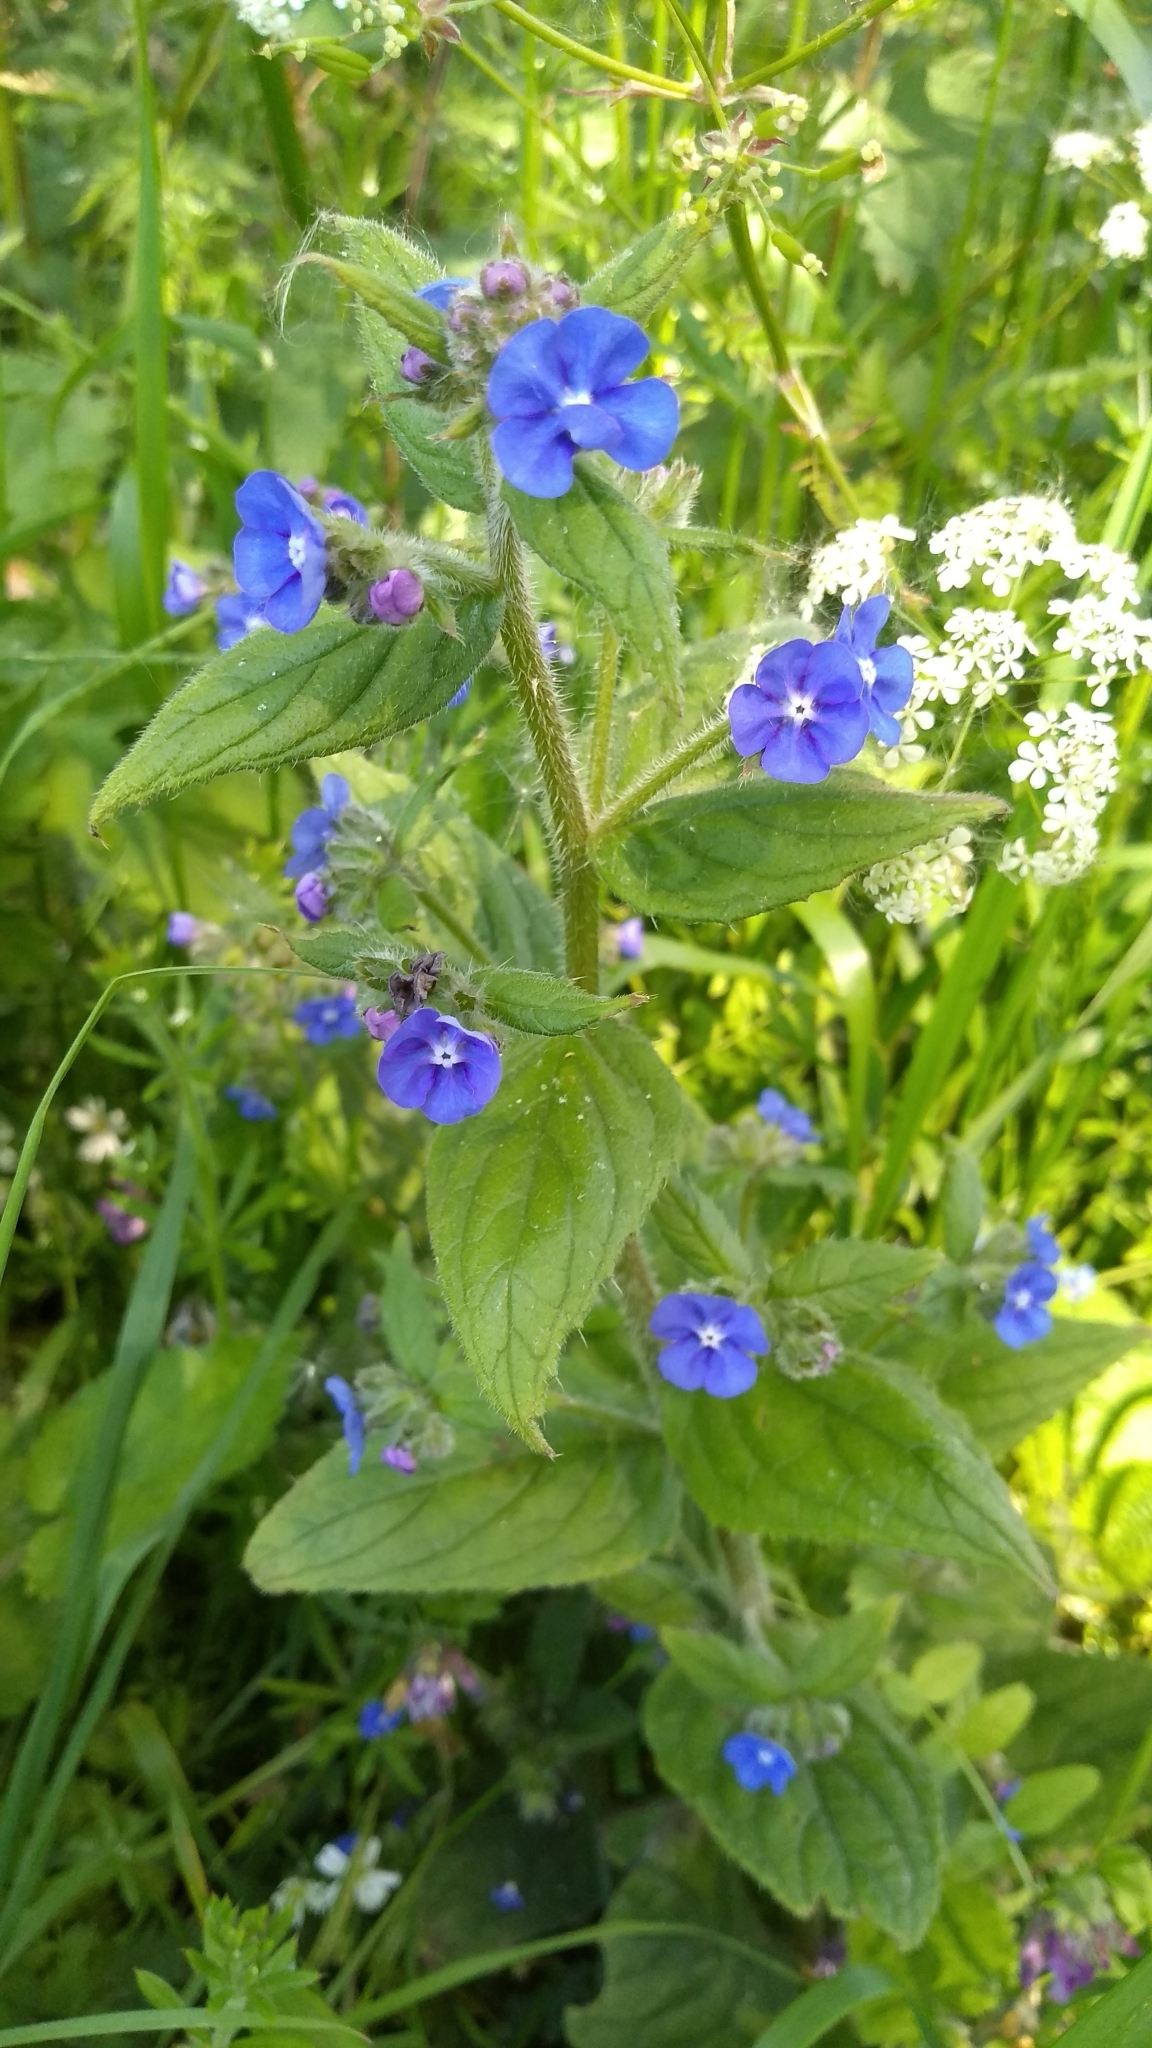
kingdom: Plantae
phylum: Tracheophyta
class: Magnoliopsida
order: Boraginales
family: Boraginaceae
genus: Pentaglottis
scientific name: Pentaglottis sempervirens
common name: Green alkanet
